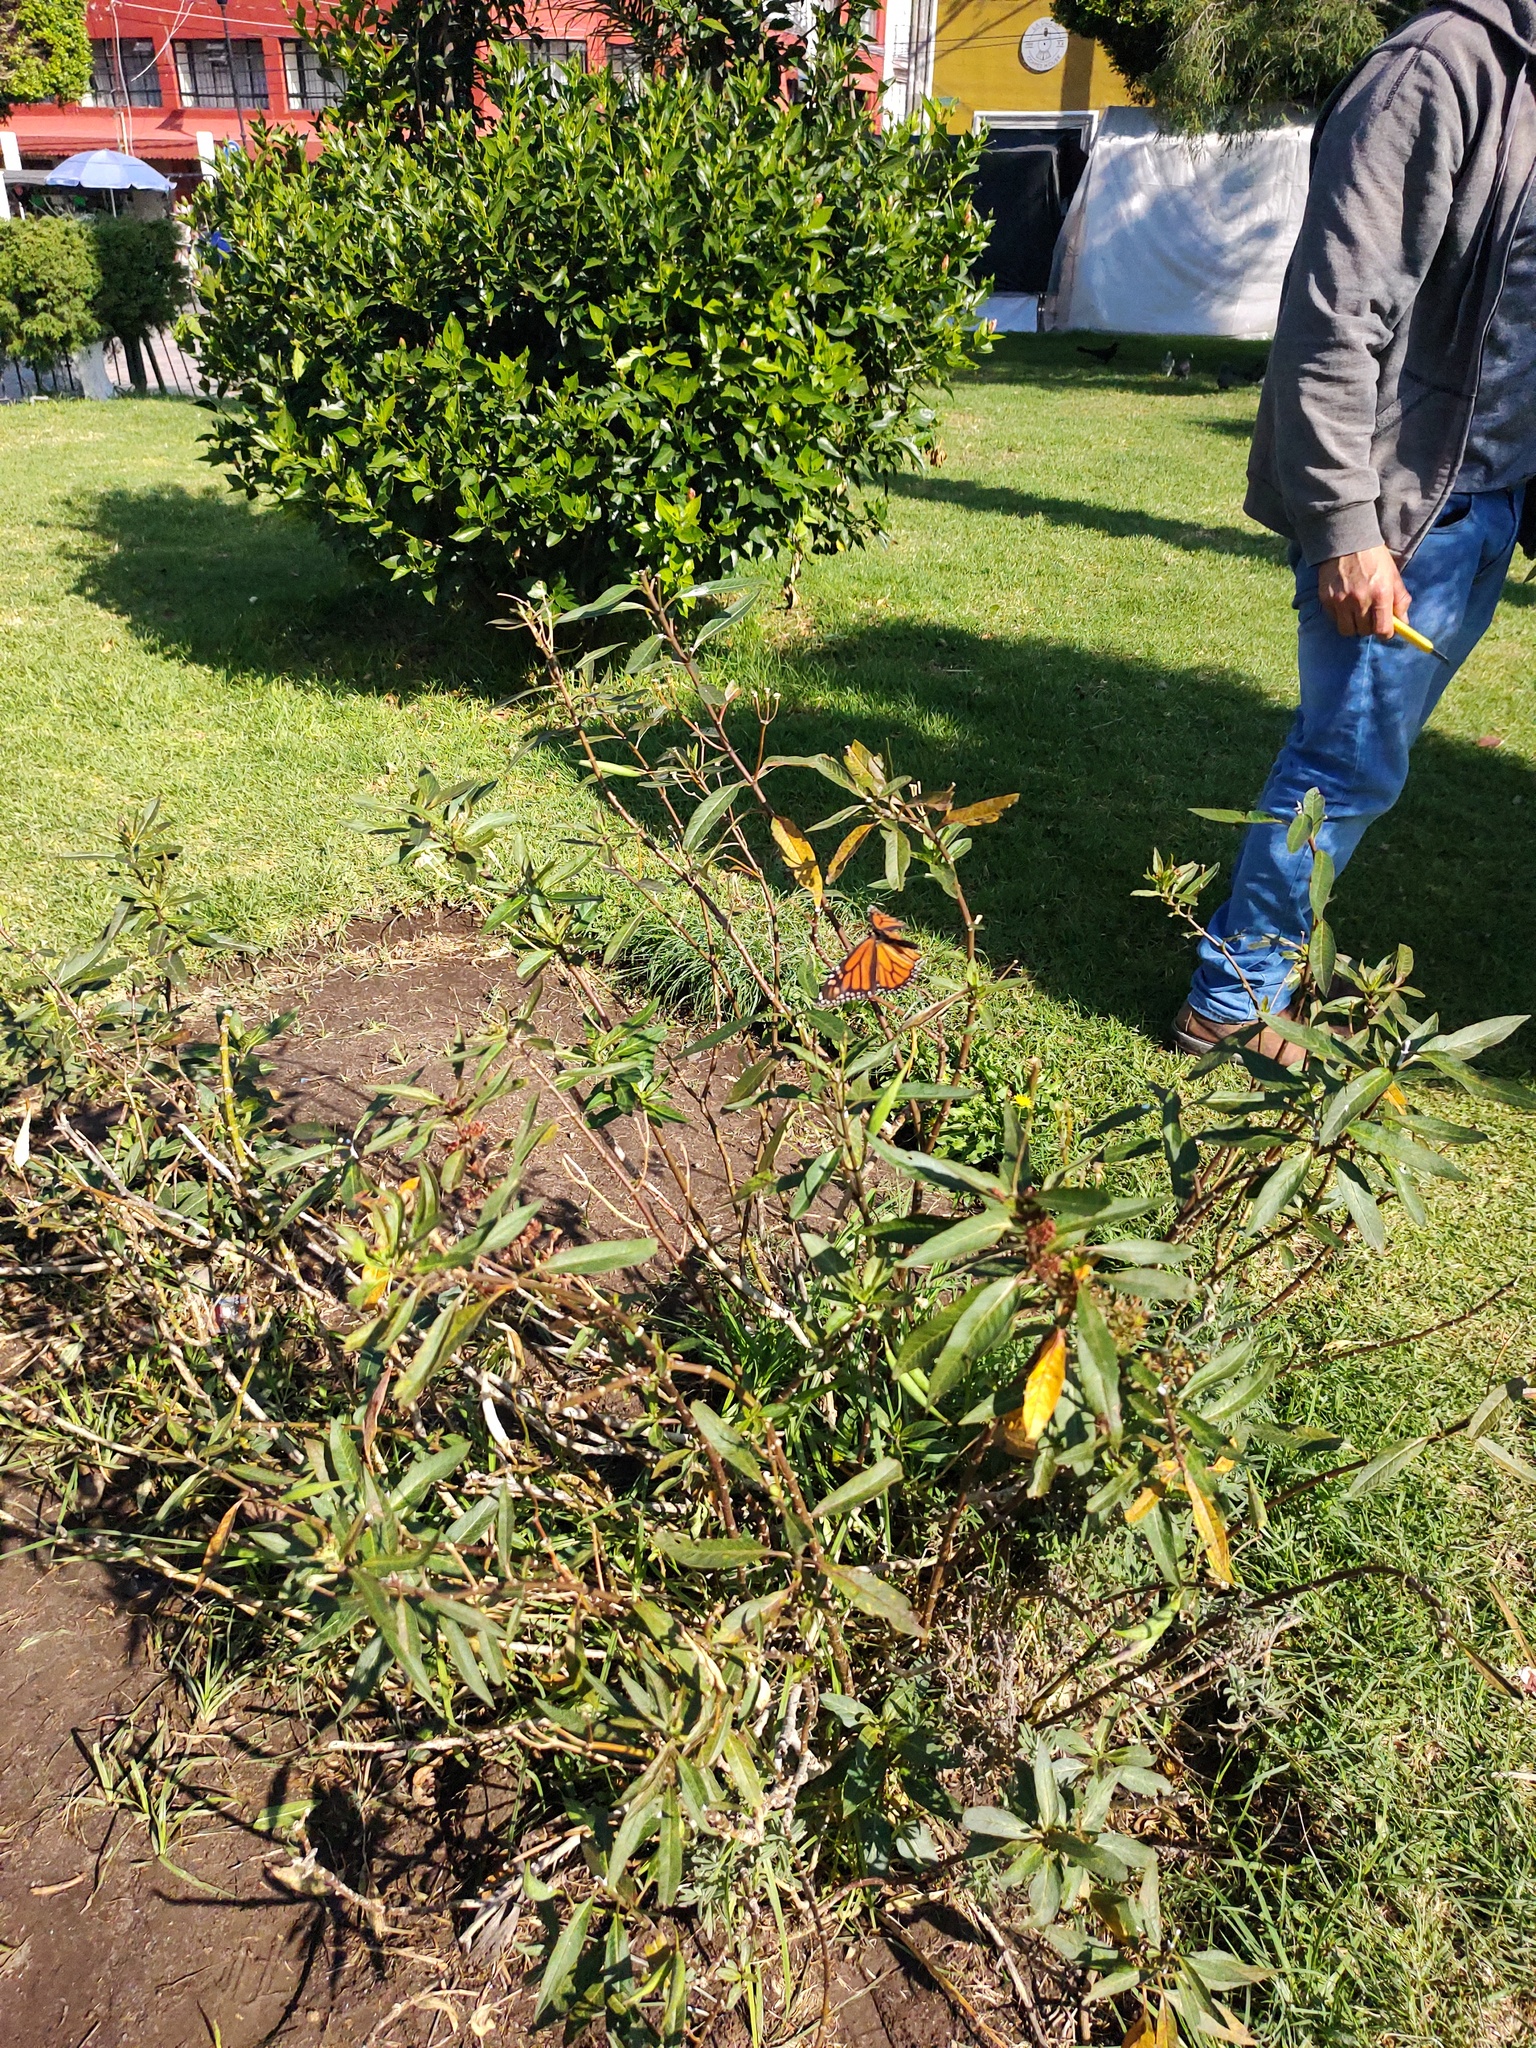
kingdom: Animalia
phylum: Arthropoda
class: Insecta
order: Lepidoptera
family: Nymphalidae
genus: Danaus
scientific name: Danaus plexippus
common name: Monarch
